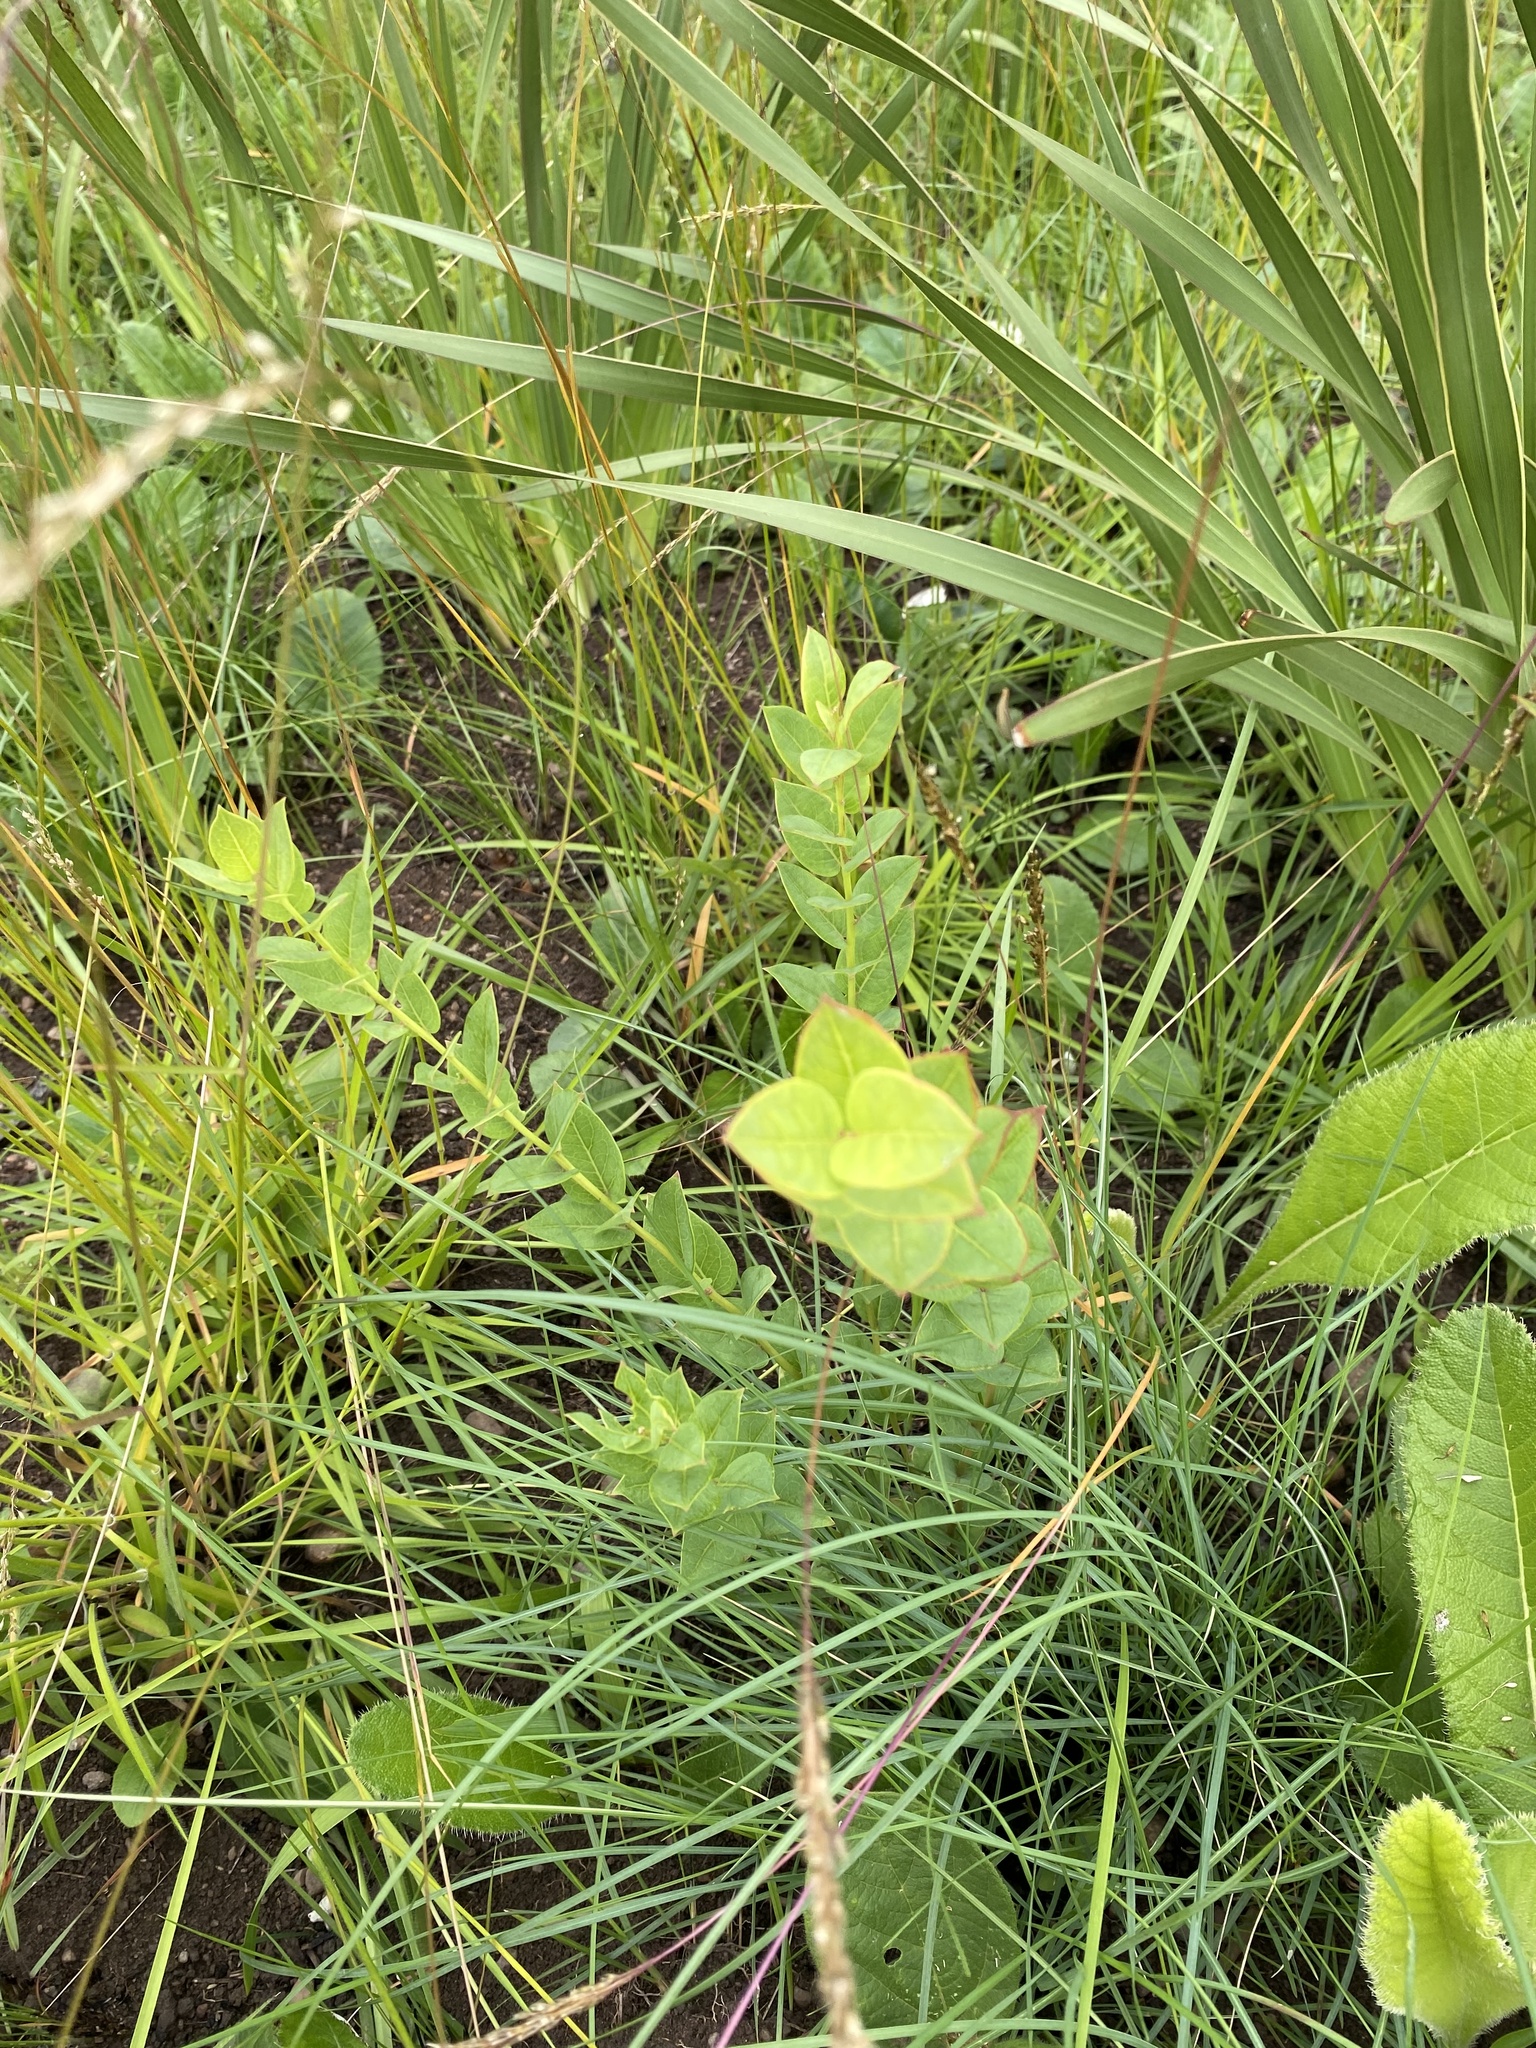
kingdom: Plantae
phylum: Tracheophyta
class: Magnoliopsida
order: Malpighiales
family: Peraceae
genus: Clutia
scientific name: Clutia cordata
